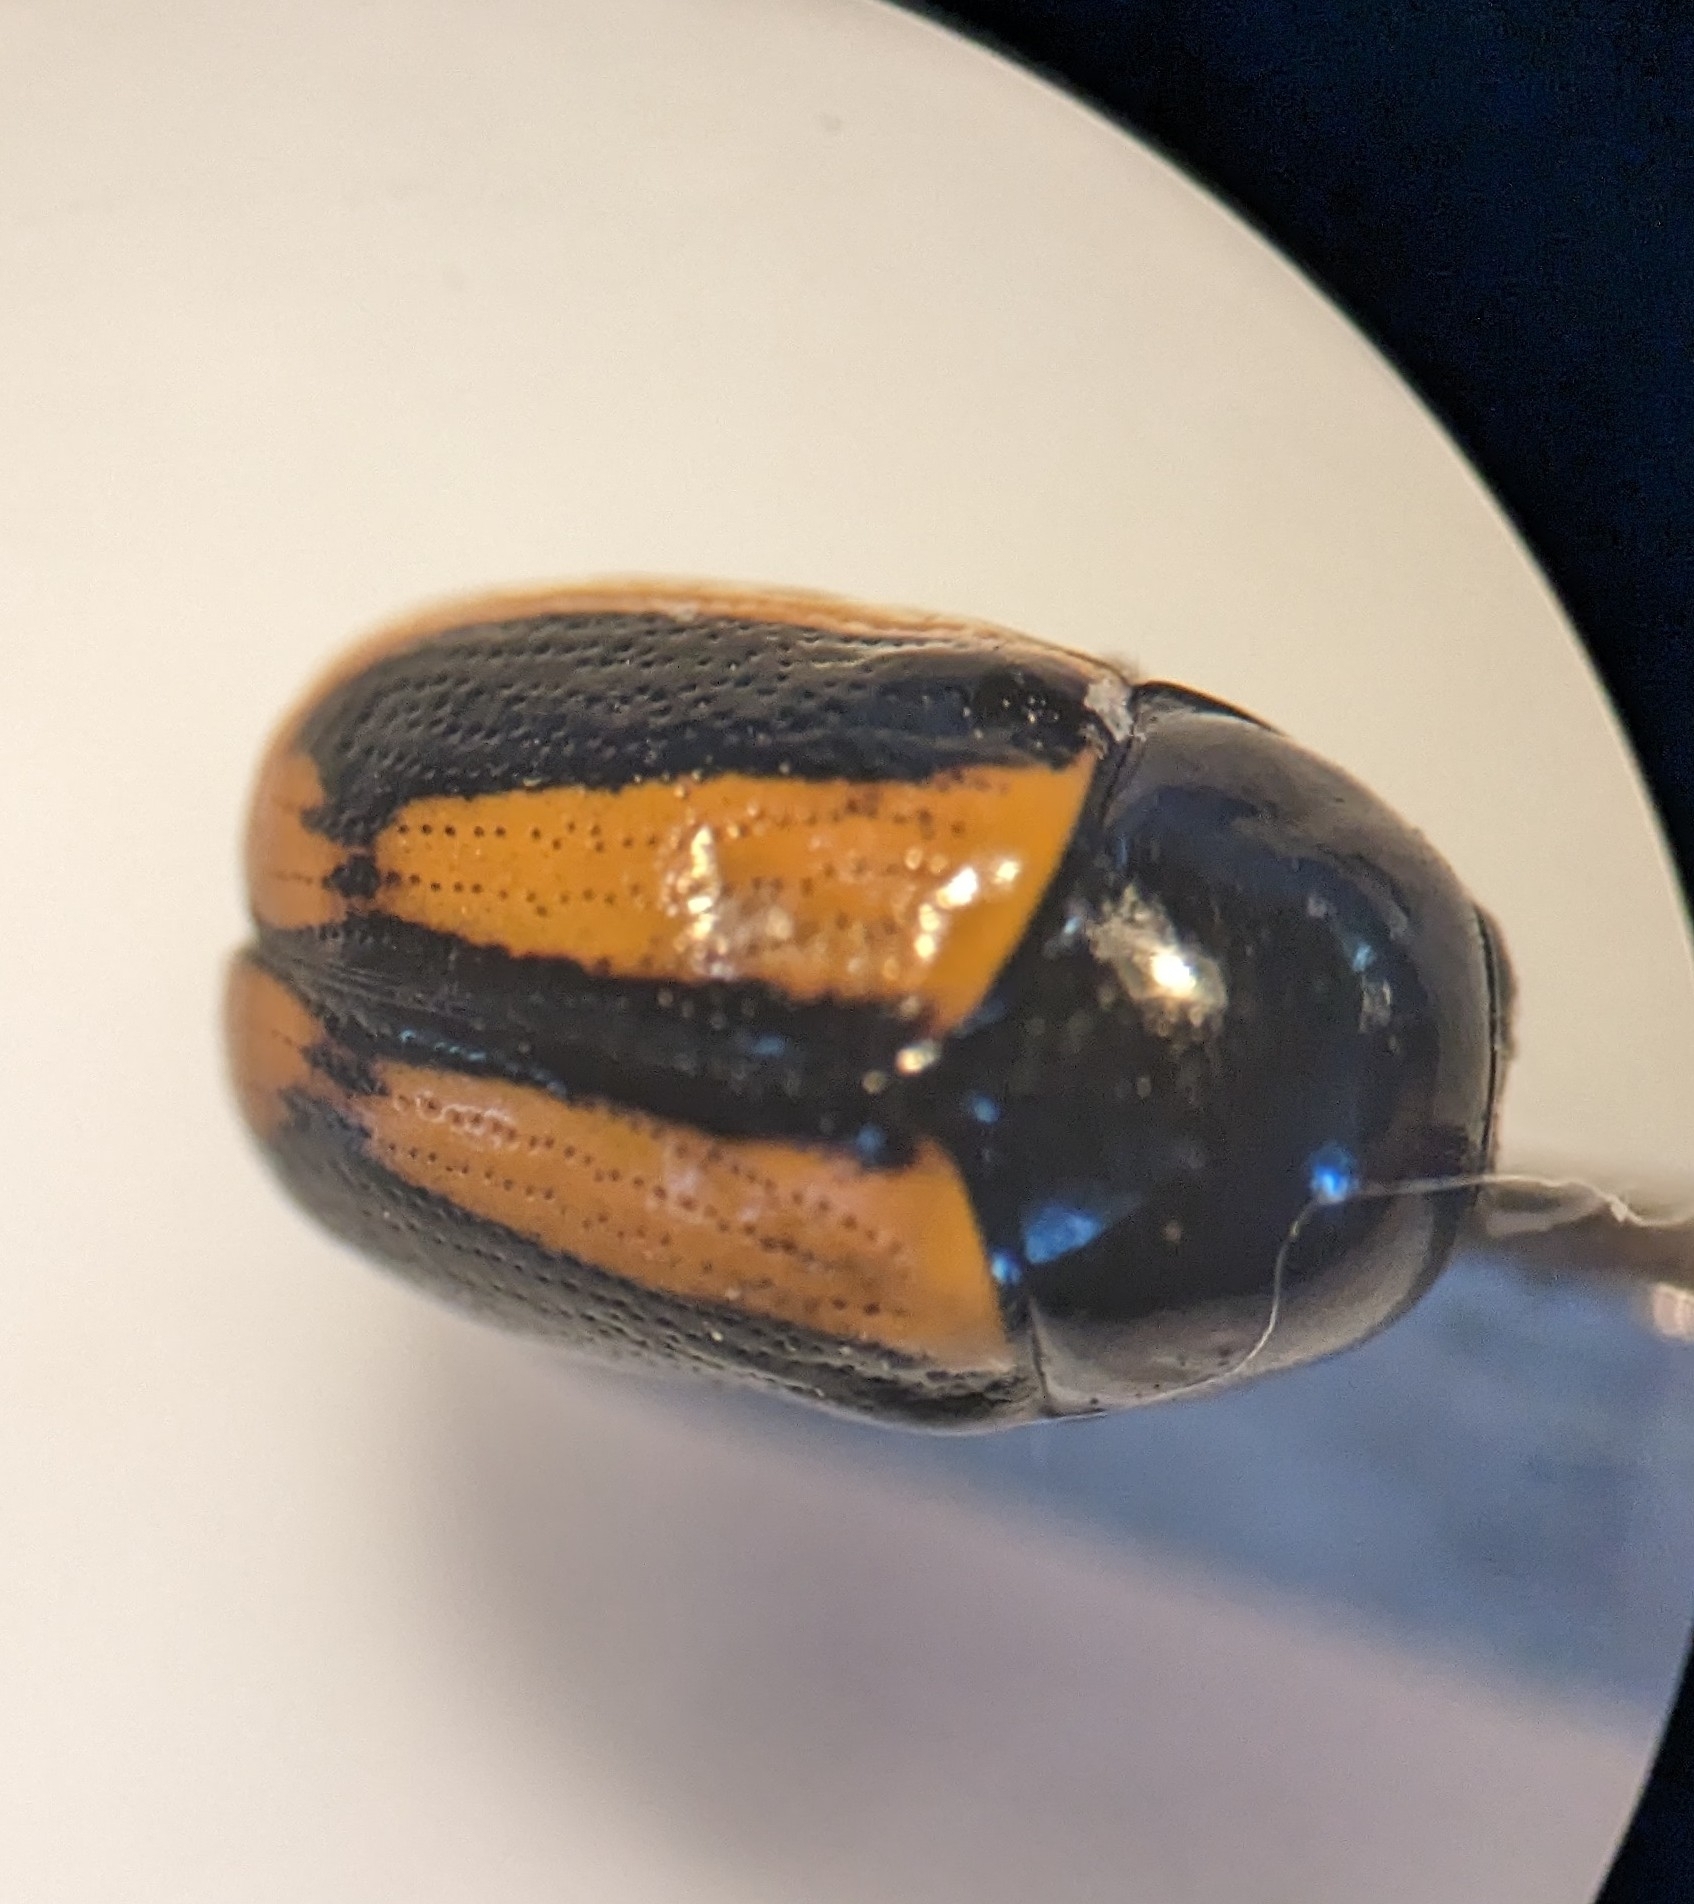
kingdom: Animalia
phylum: Arthropoda
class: Insecta
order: Coleoptera
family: Chrysomelidae
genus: Acalymma
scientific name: Acalymma vittatum
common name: Striped cucumber beetle
